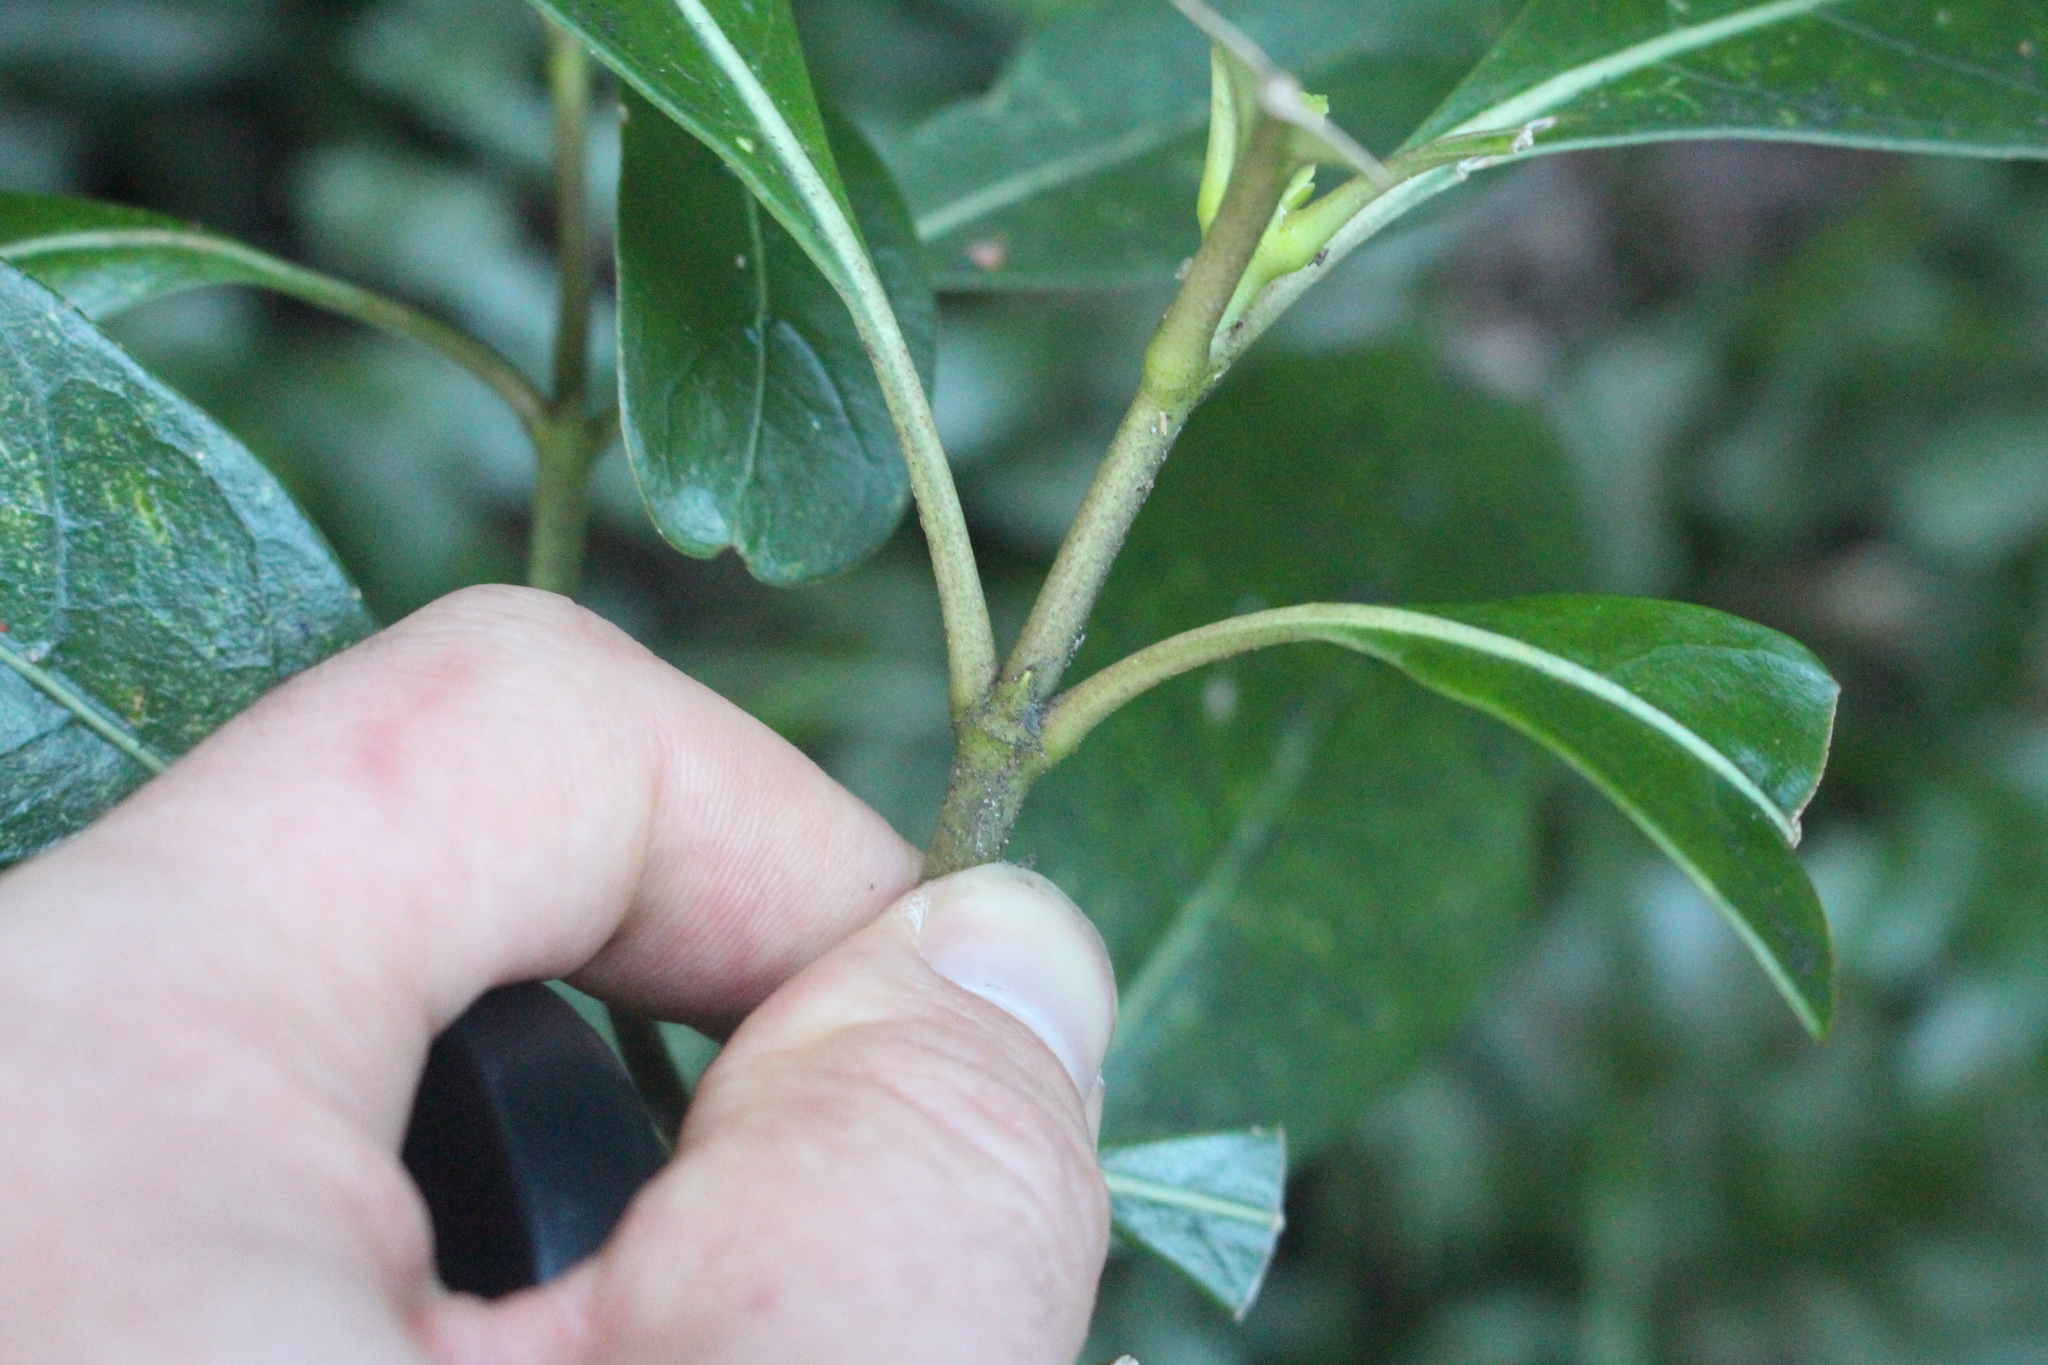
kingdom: Plantae
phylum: Tracheophyta
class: Magnoliopsida
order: Gentianales
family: Rubiaceae
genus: Coprosma
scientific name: Coprosma lucida
